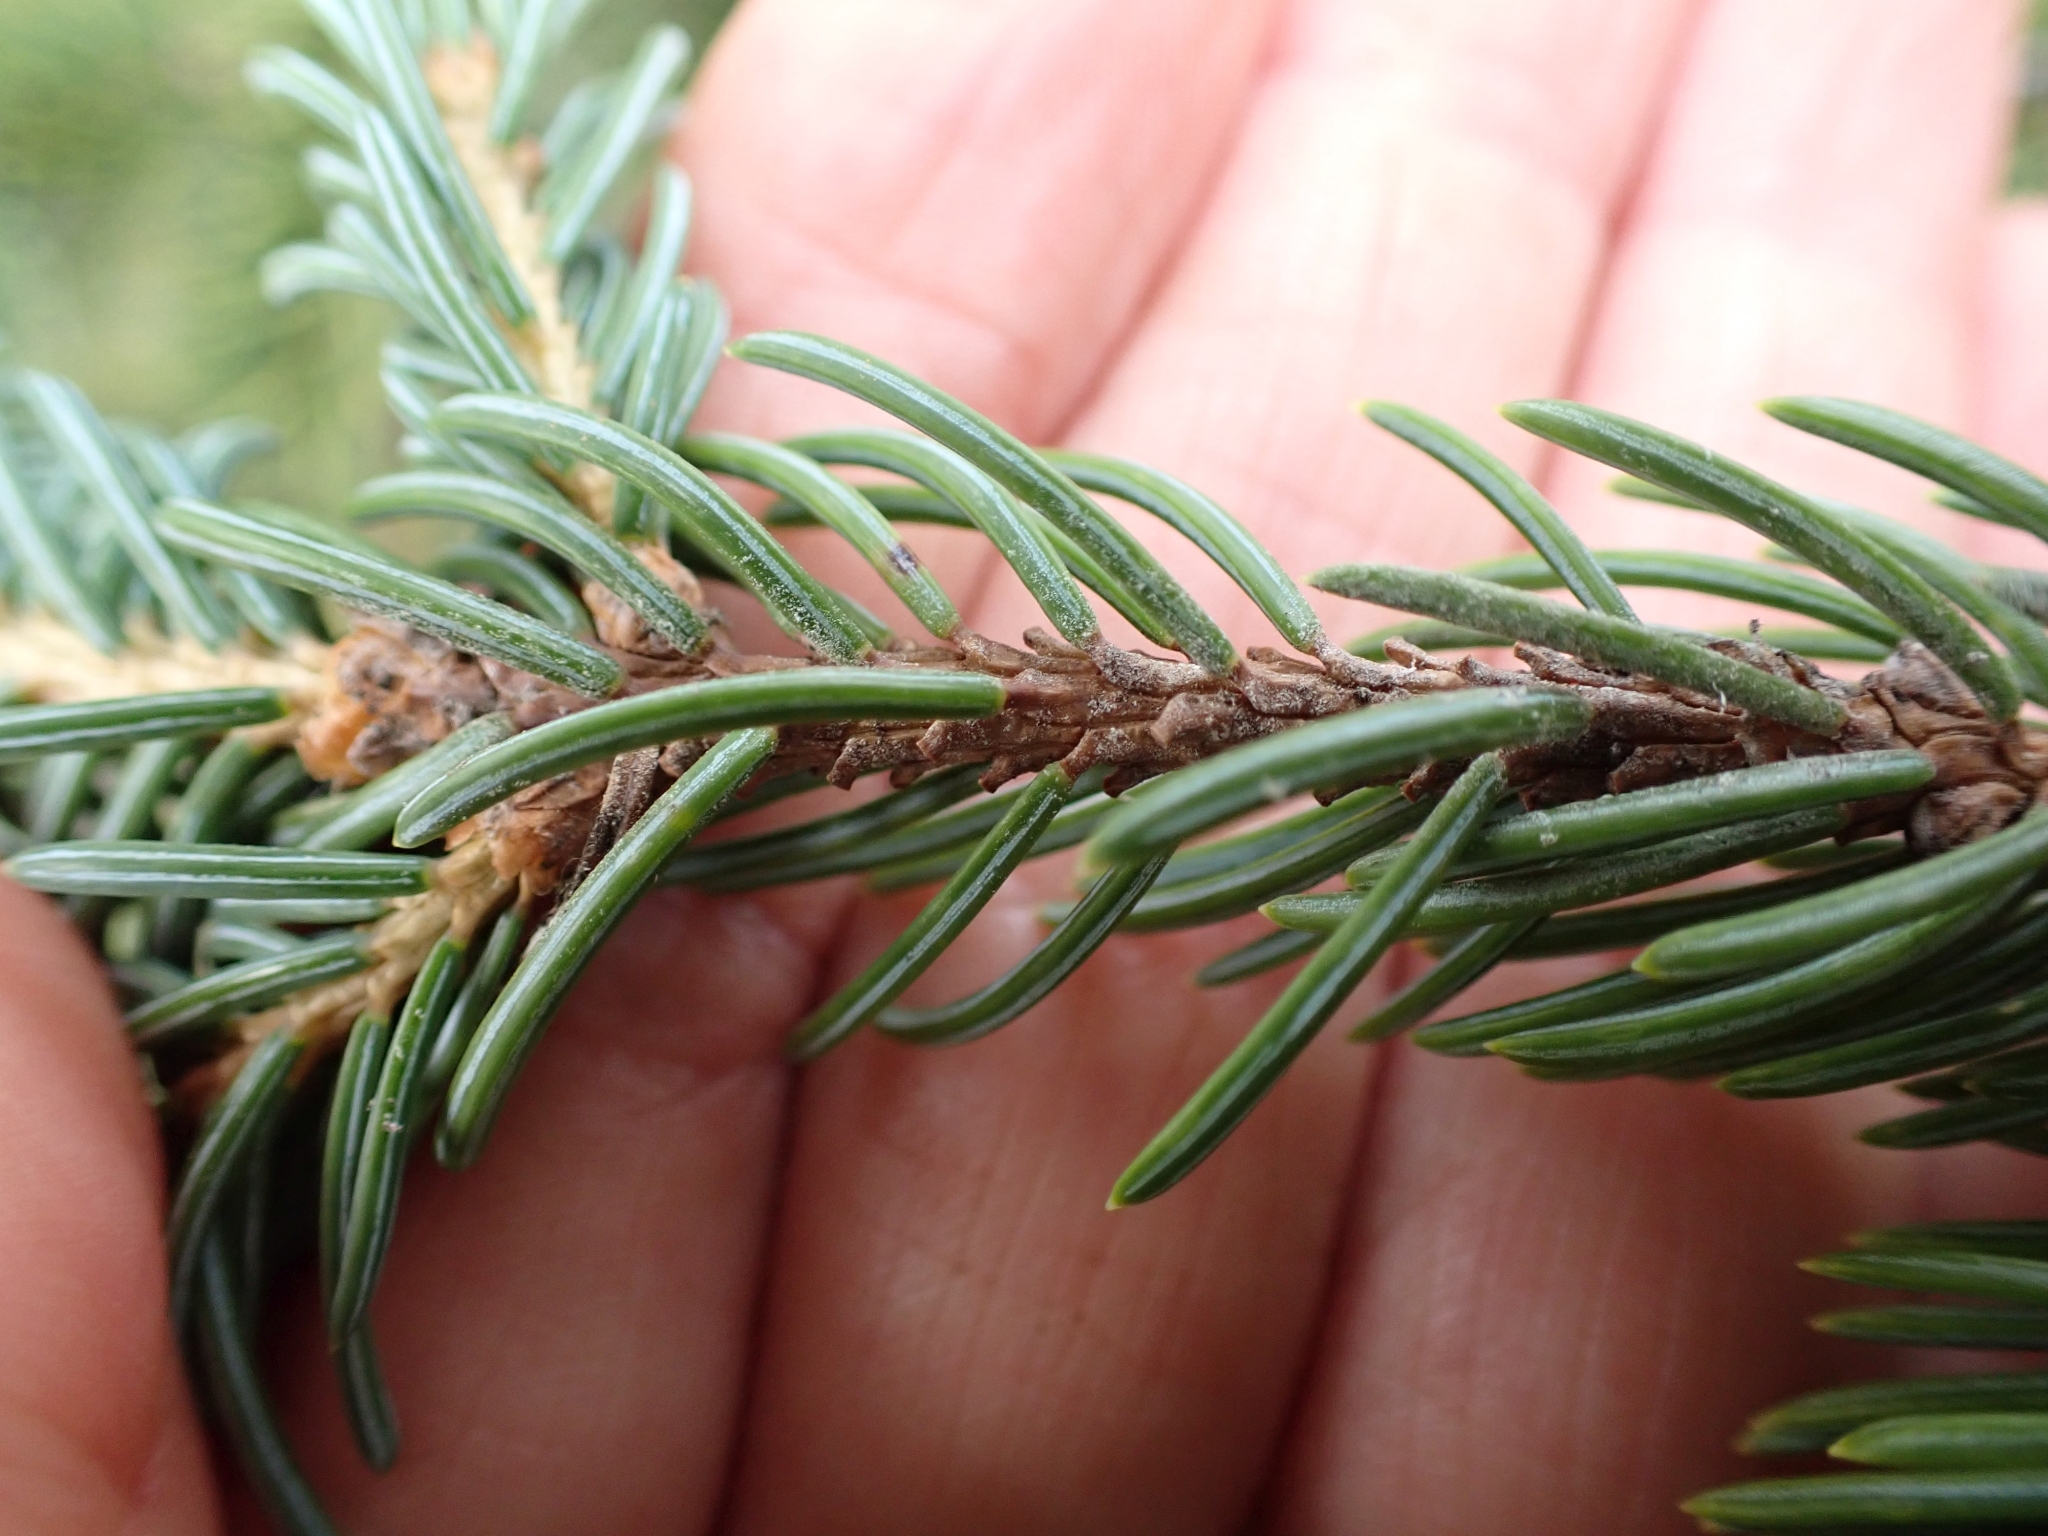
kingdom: Plantae
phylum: Tracheophyta
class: Pinopsida
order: Pinales
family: Pinaceae
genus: Picea
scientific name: Picea
